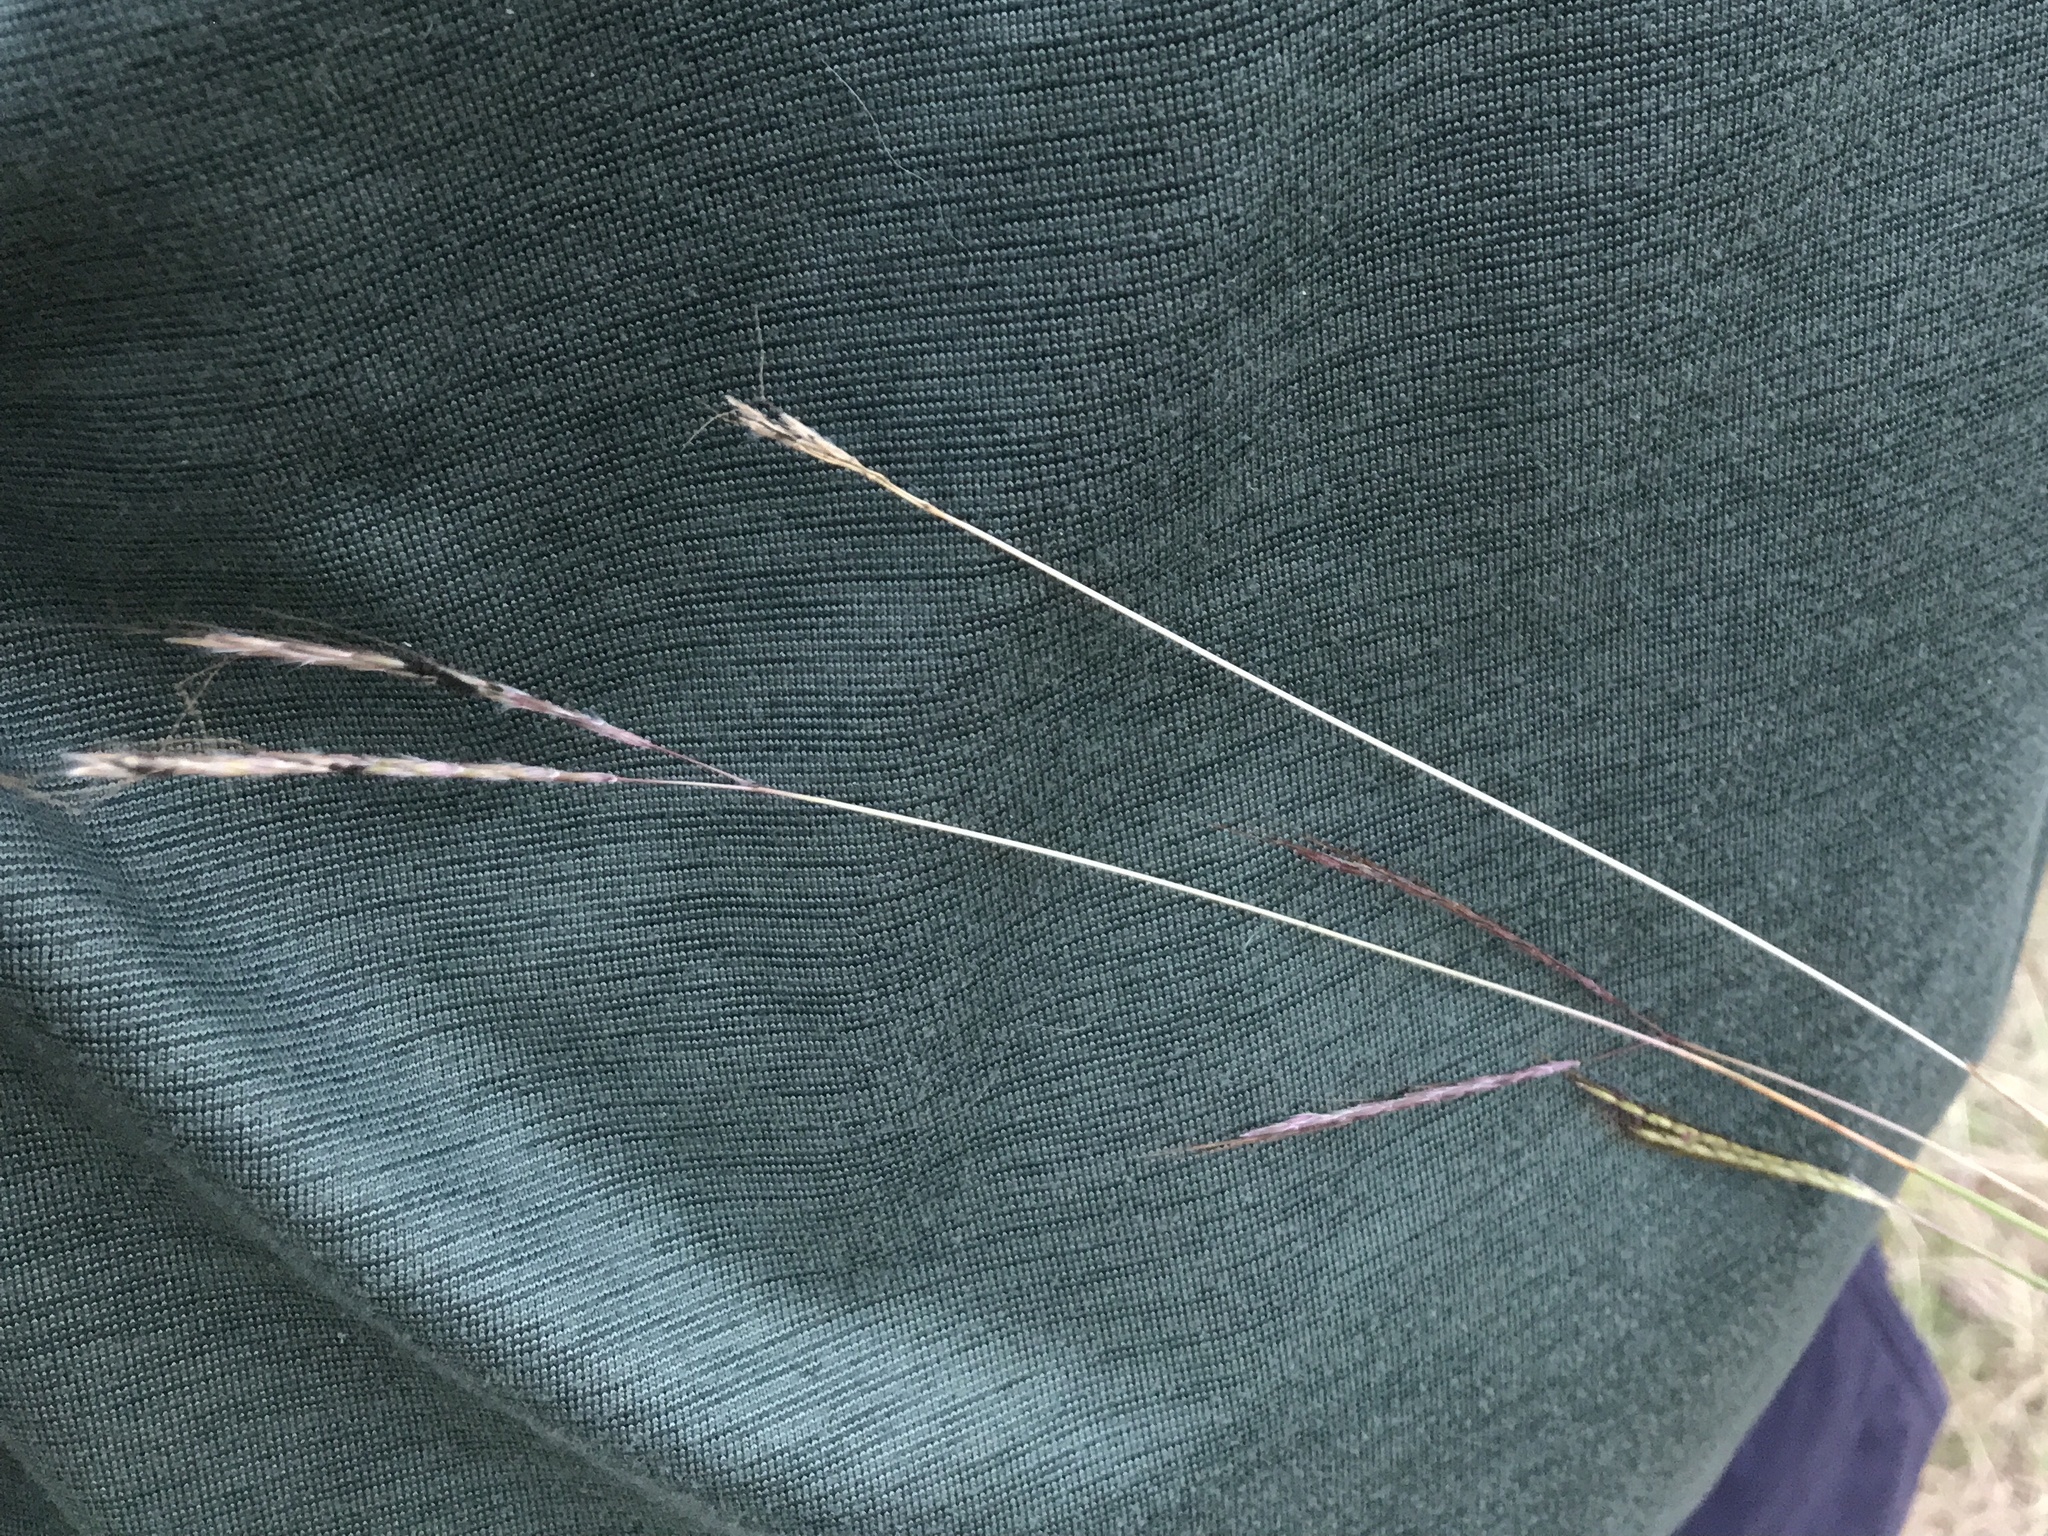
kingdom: Plantae
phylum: Tracheophyta
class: Liliopsida
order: Poales
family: Poaceae
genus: Bothriochloa
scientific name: Bothriochloa ischaemum
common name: Yellow bluestem
